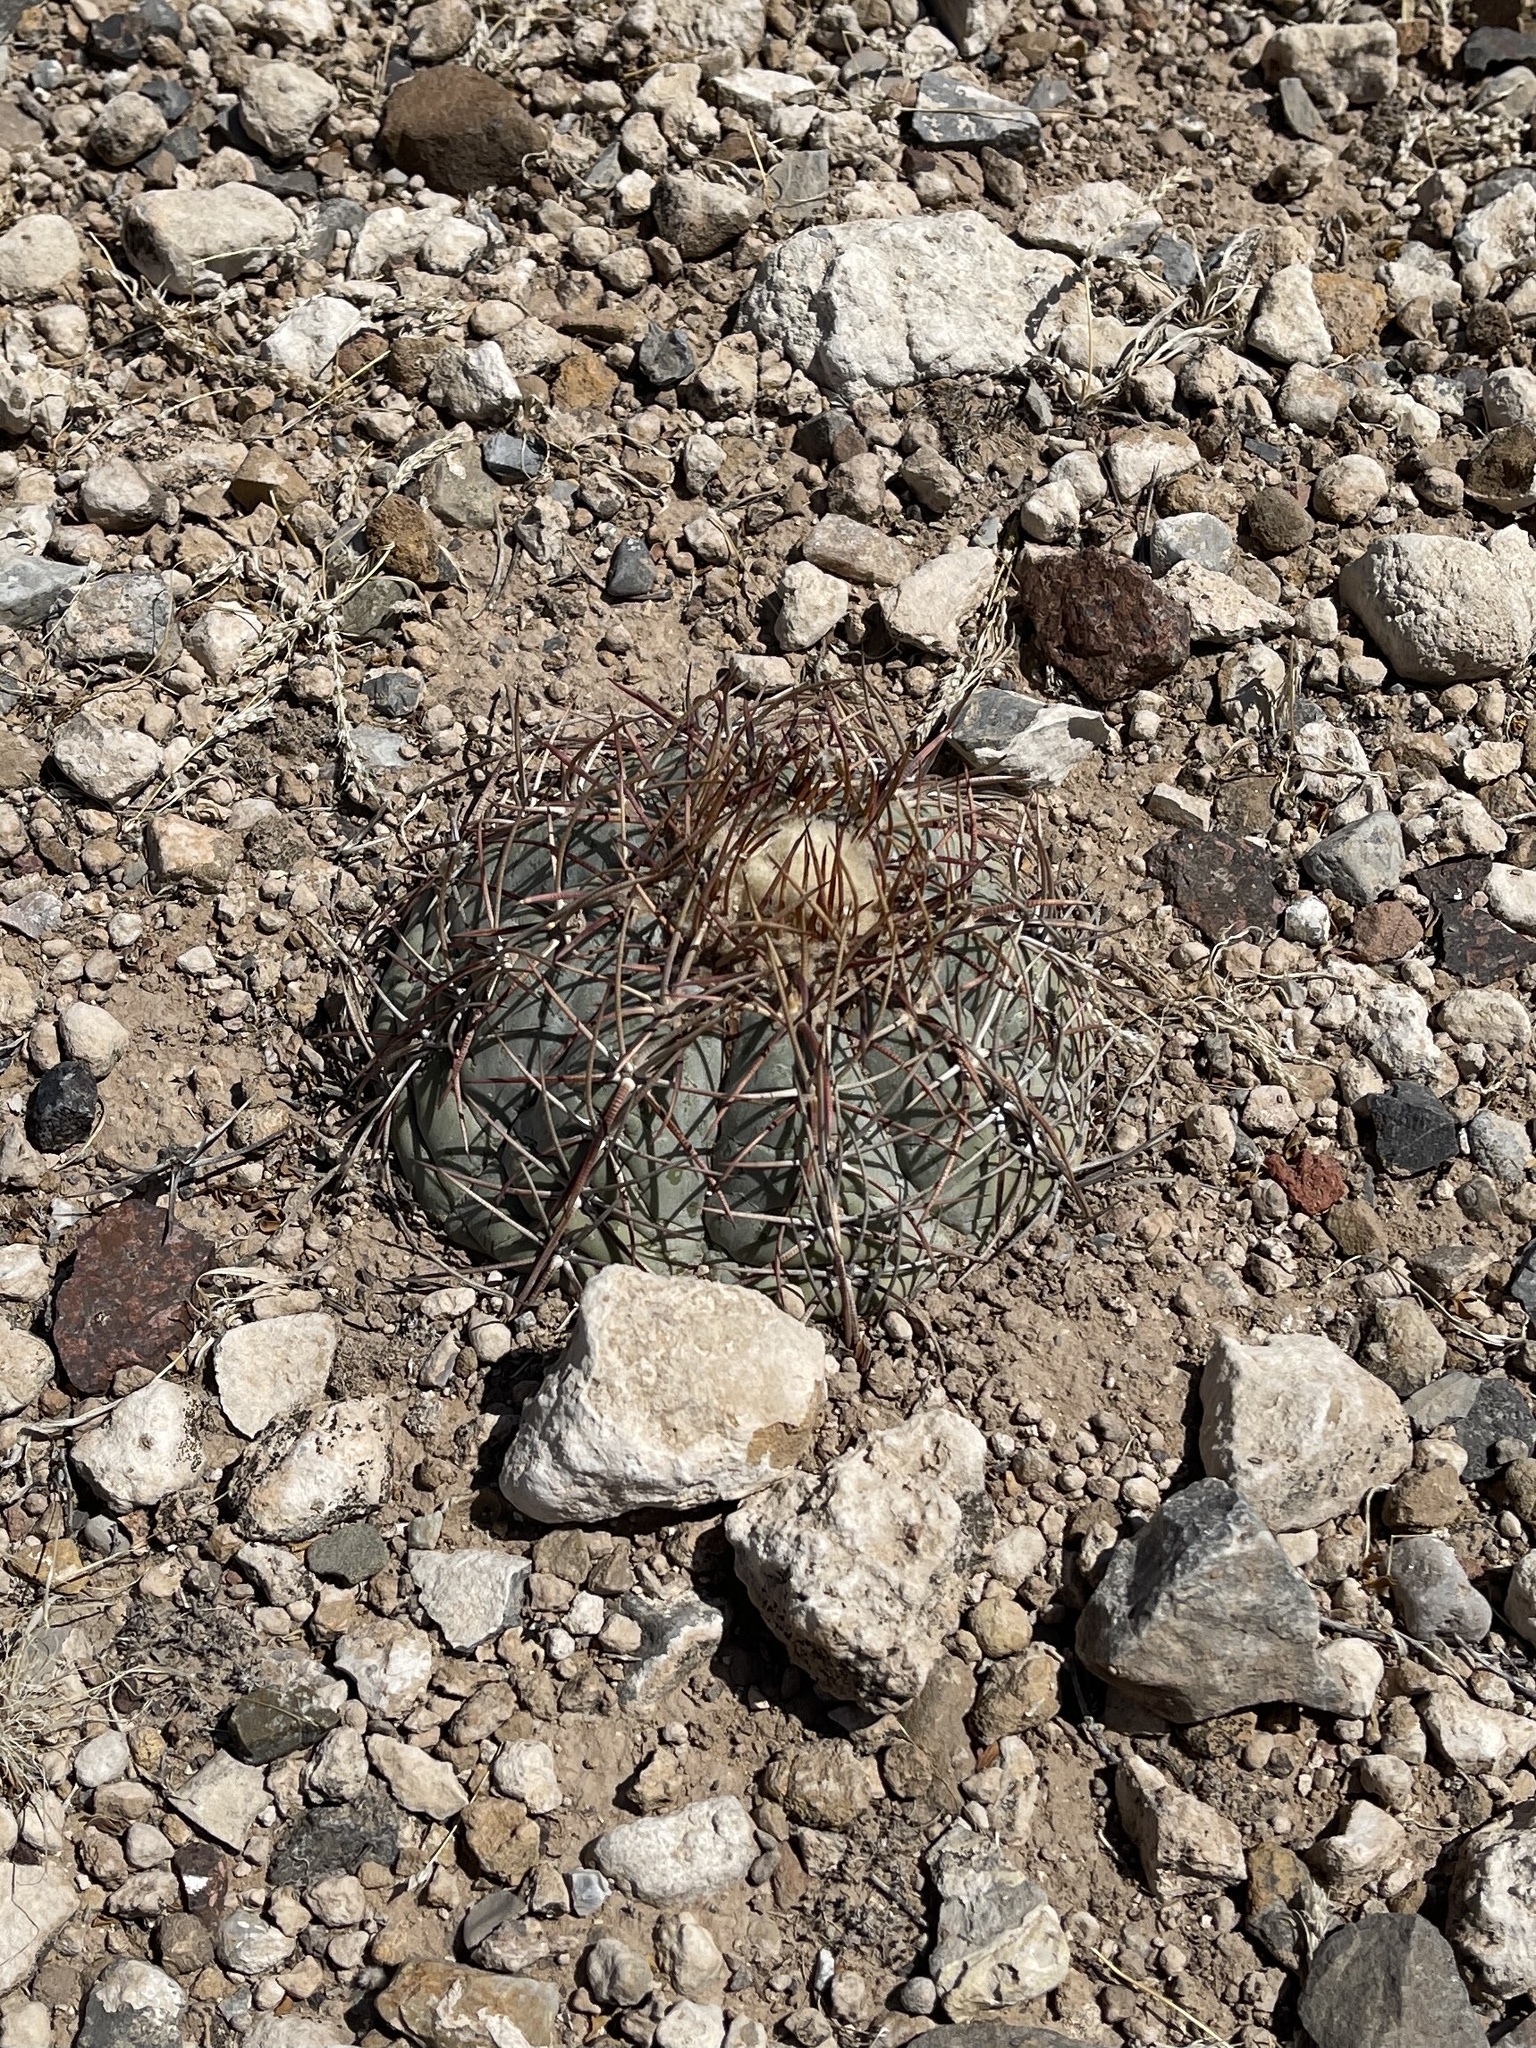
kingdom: Plantae
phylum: Tracheophyta
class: Magnoliopsida
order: Caryophyllales
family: Cactaceae
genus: Echinocactus
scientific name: Echinocactus horizonthalonius
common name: Devilshead
